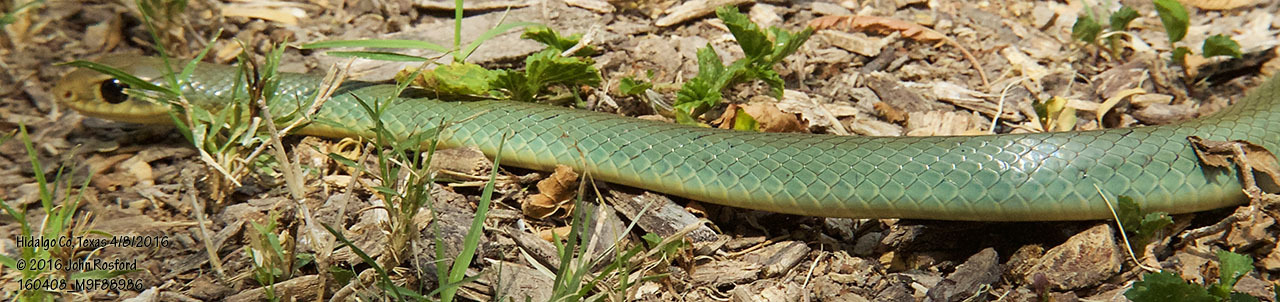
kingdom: Animalia
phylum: Chordata
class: Squamata
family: Colubridae
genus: Coluber
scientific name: Coluber constrictor
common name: Eastern racer
